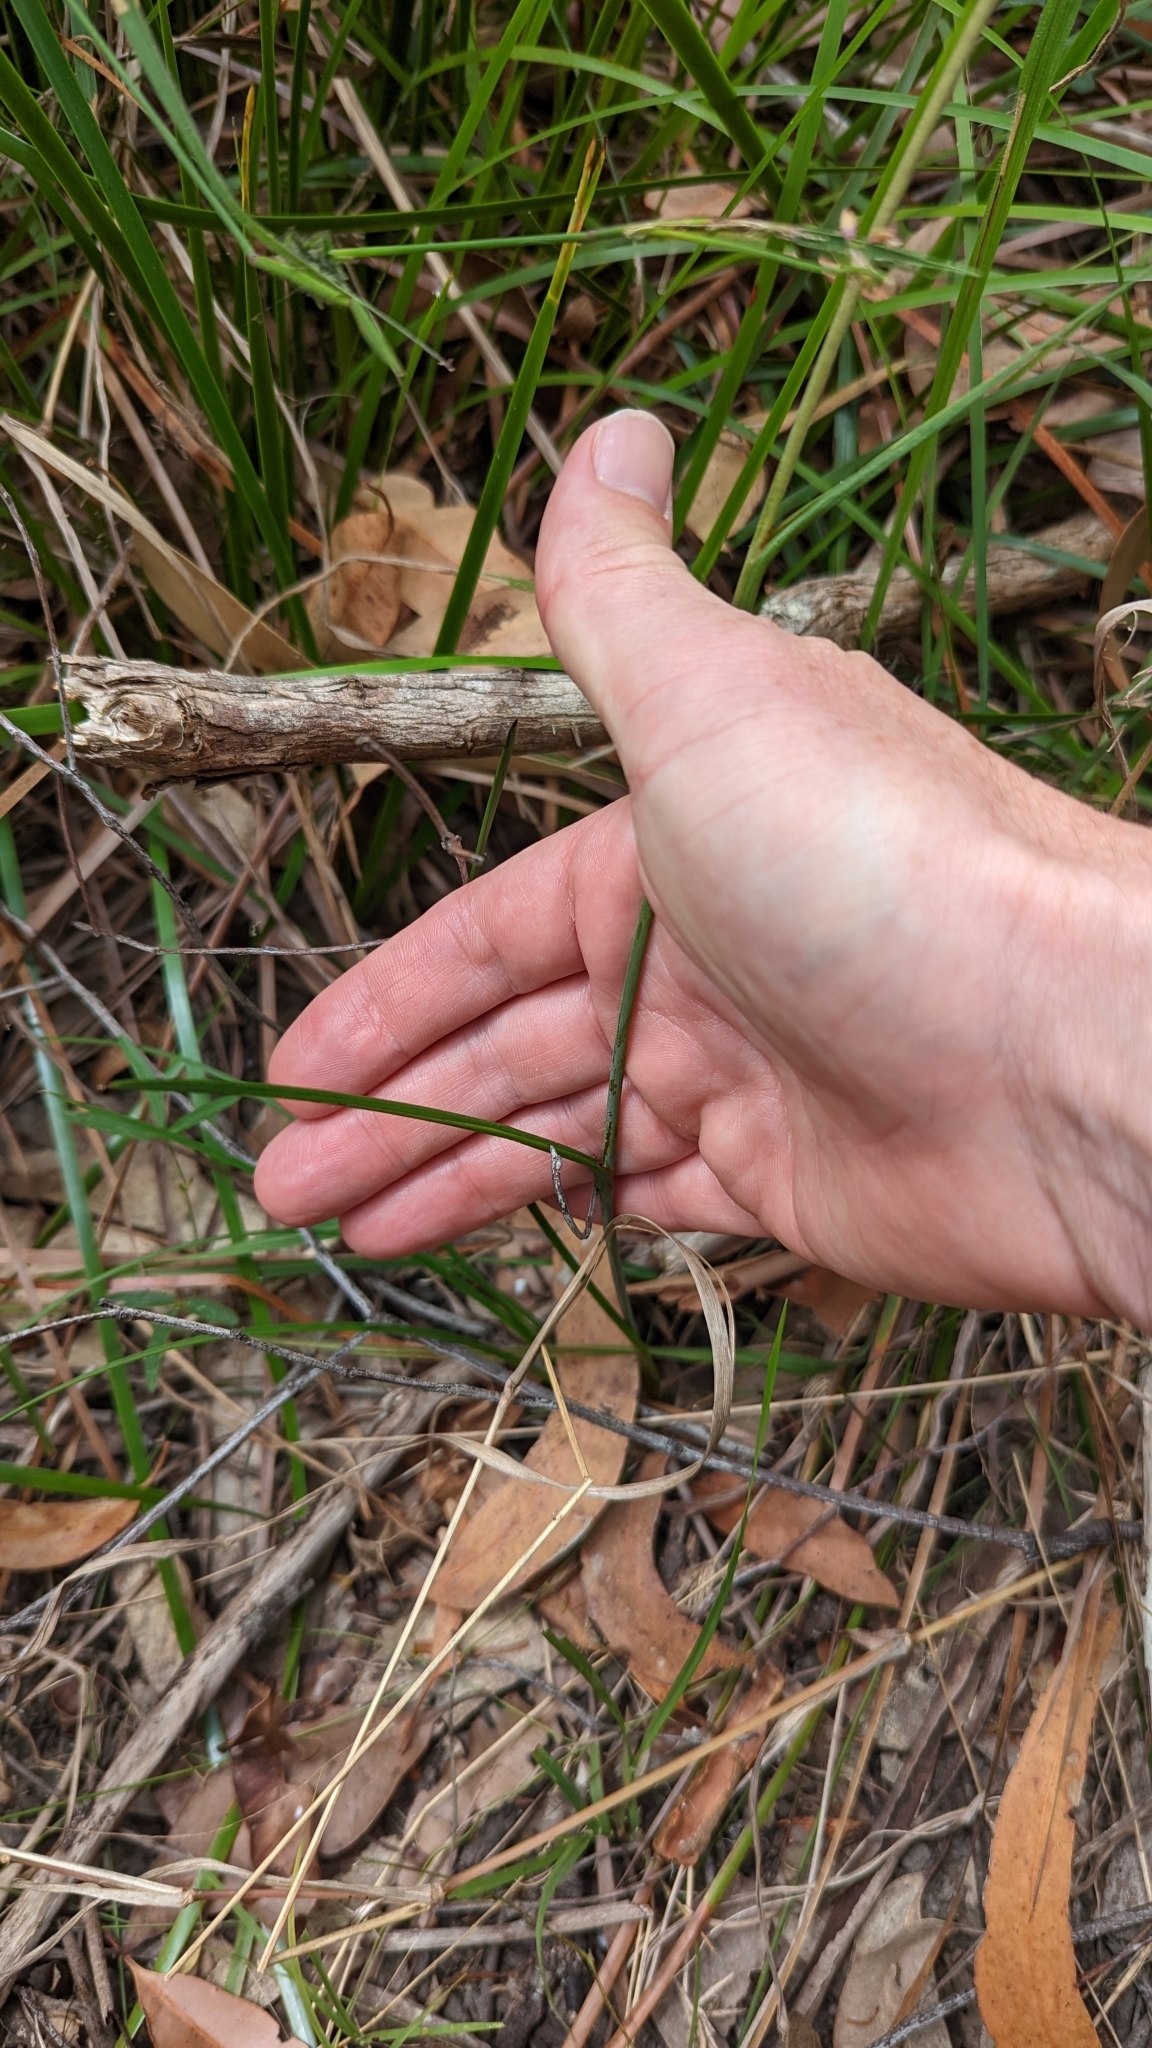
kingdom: Plantae
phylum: Tracheophyta
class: Liliopsida
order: Commelinales
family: Haemodoraceae
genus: Haemodorum
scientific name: Haemodorum austroqueenslandicum
